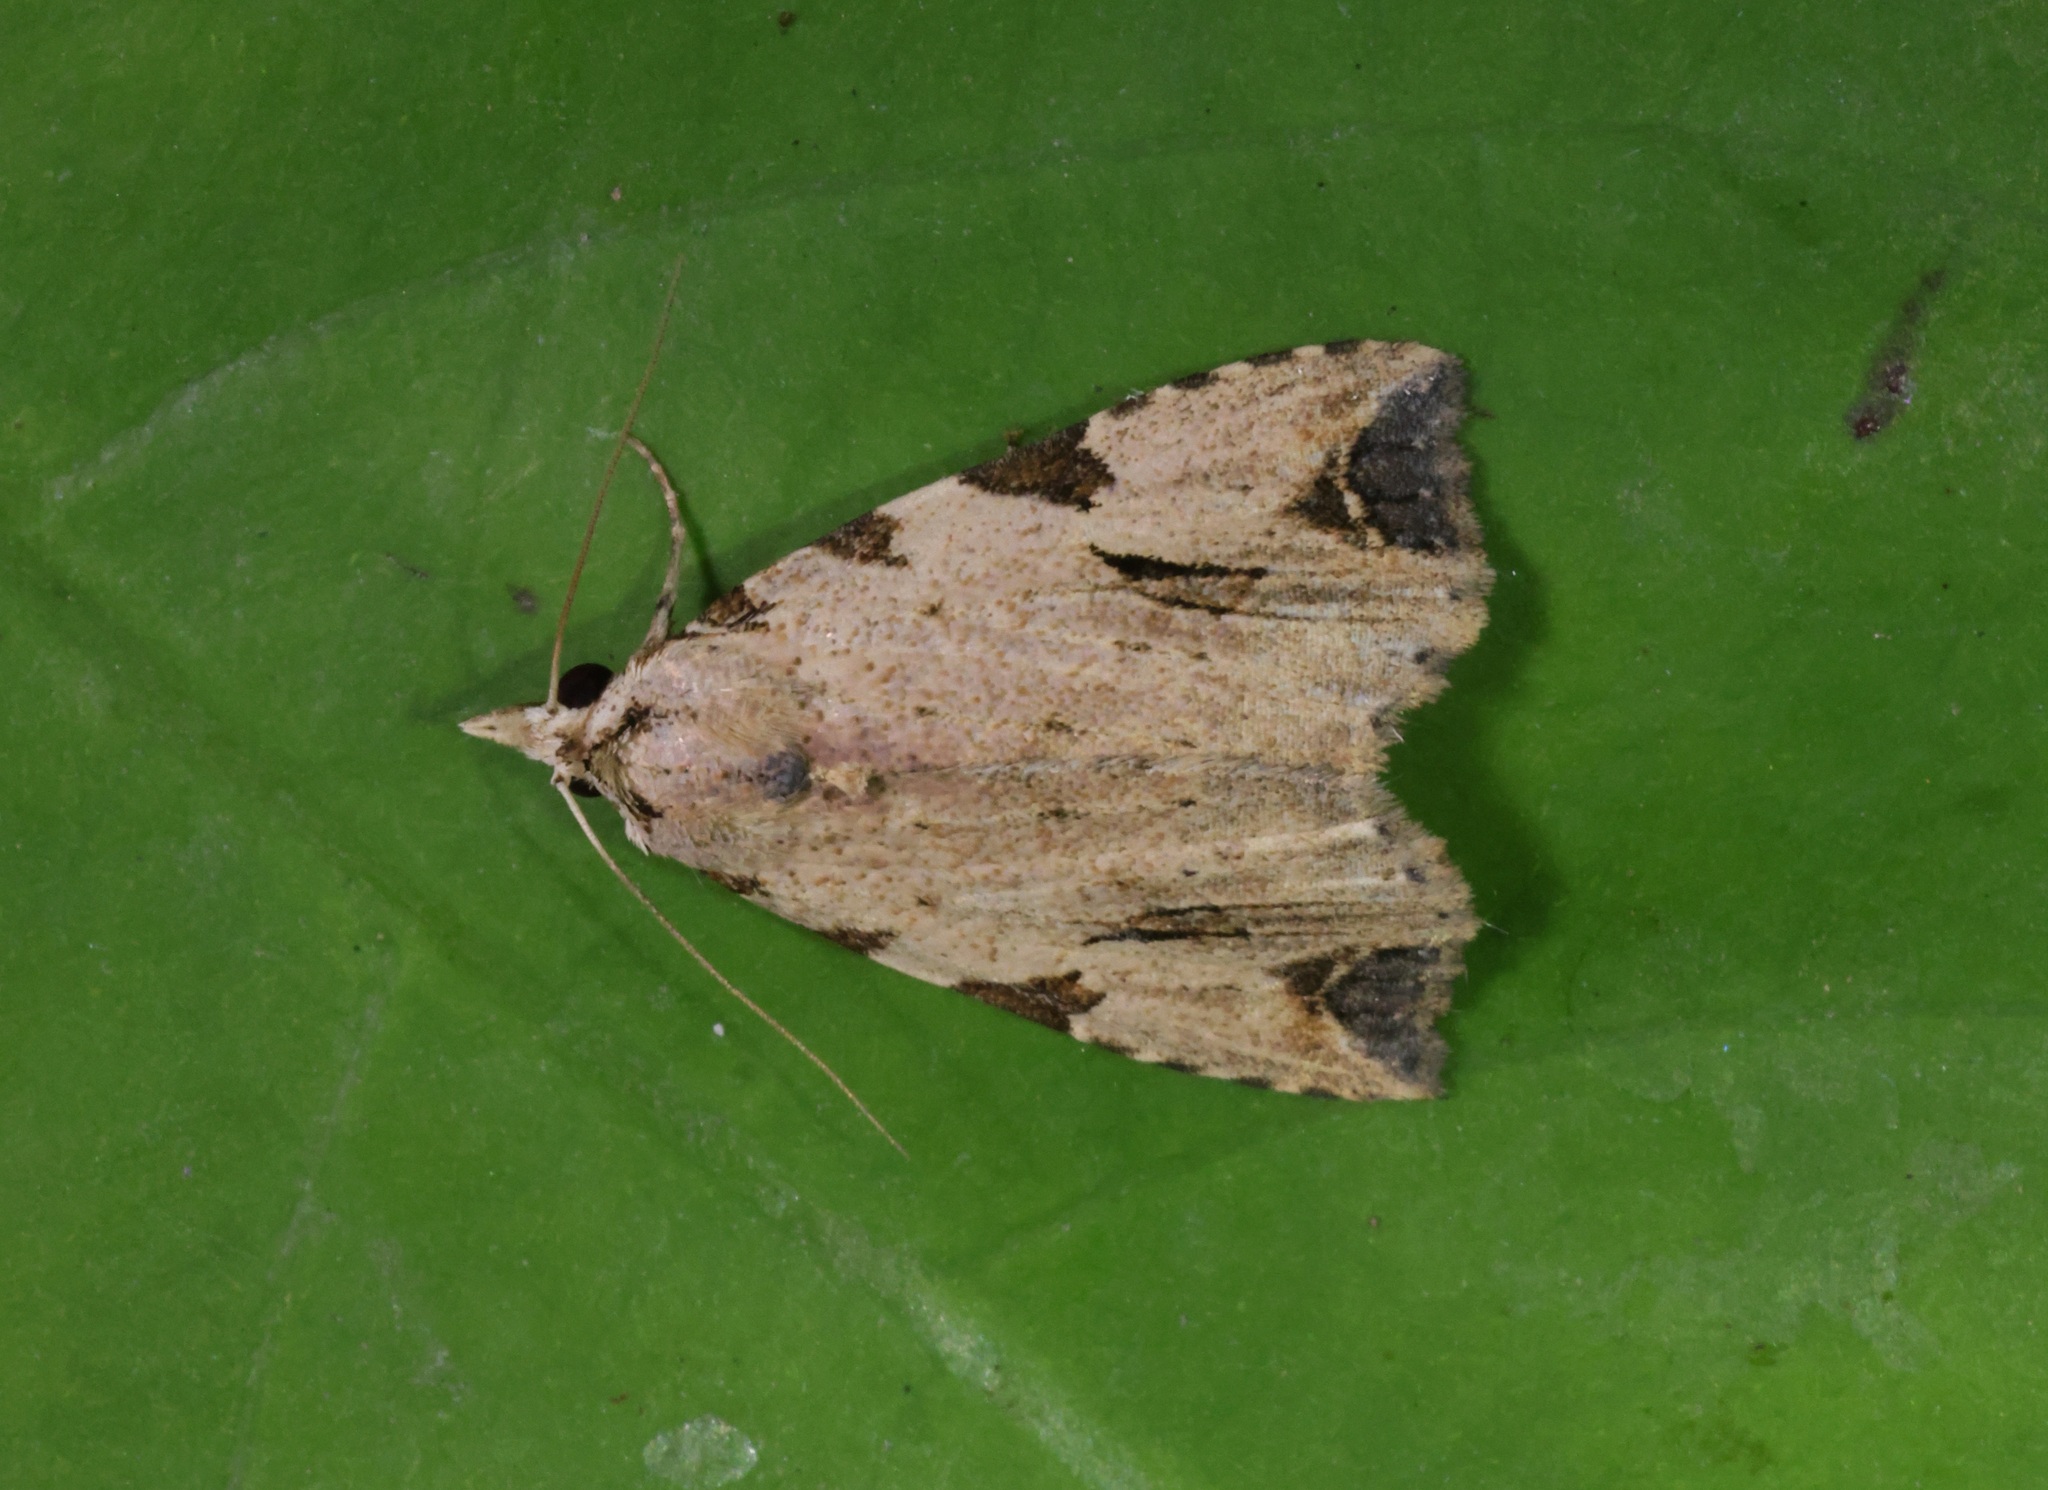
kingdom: Animalia
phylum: Arthropoda
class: Insecta
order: Lepidoptera
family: Erebidae
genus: Oglasa
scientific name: Oglasa costimacula
